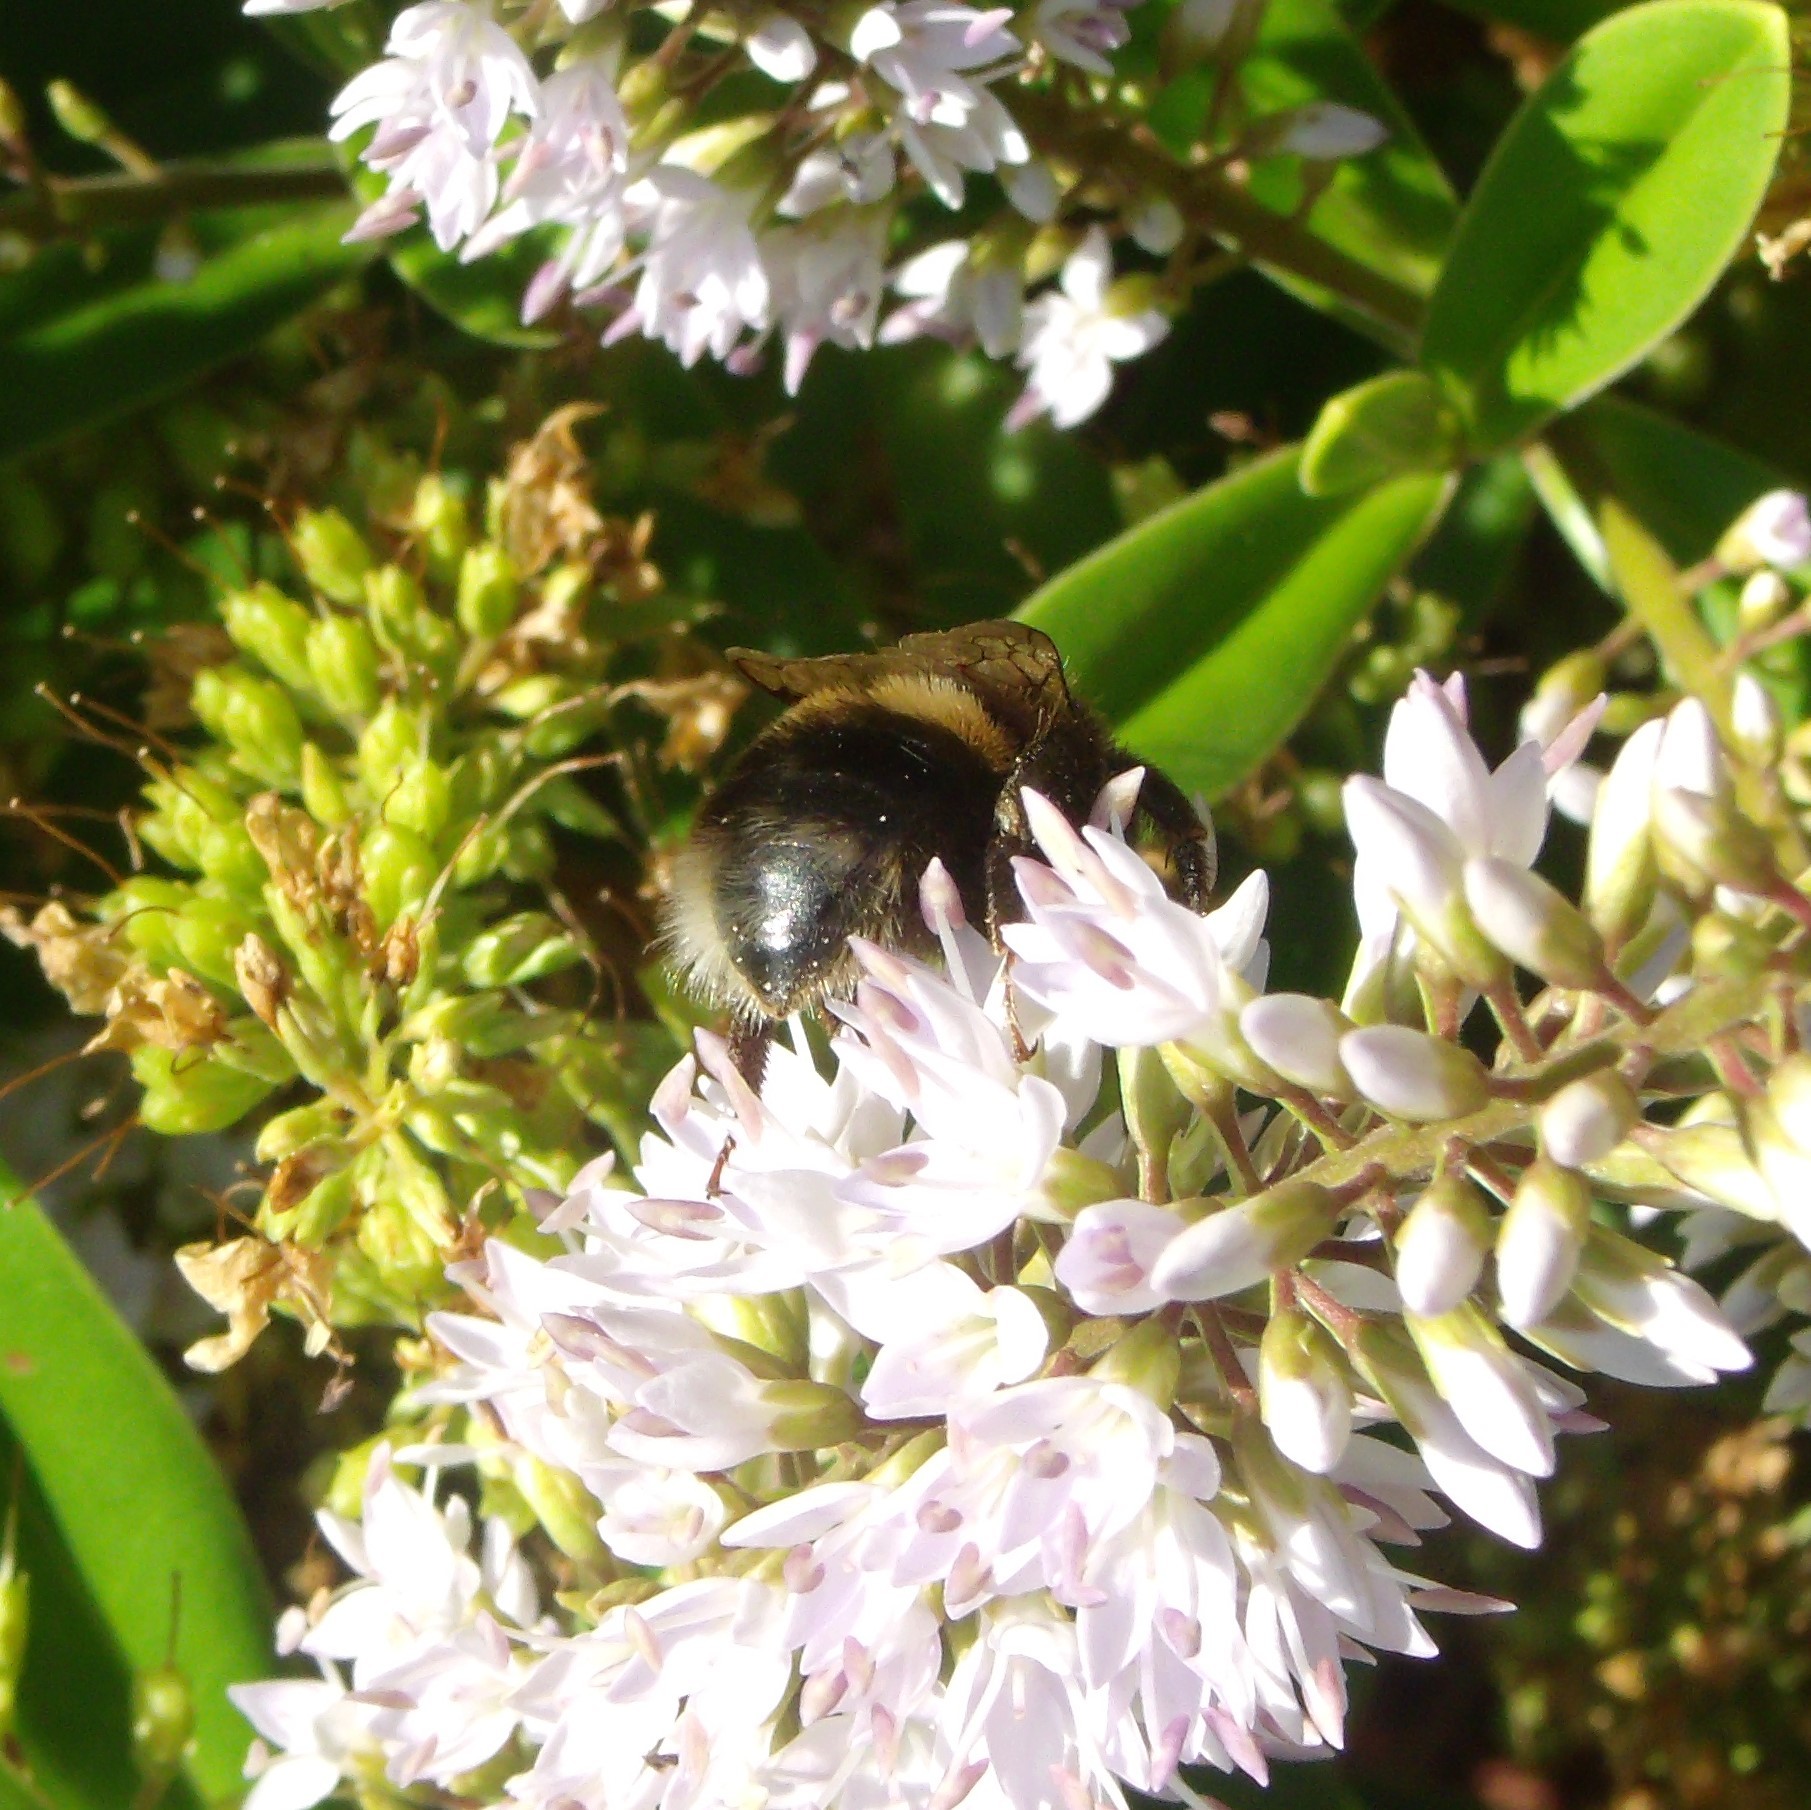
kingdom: Animalia
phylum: Arthropoda
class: Insecta
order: Hymenoptera
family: Apidae
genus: Bombus
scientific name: Bombus terrestris
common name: Buff-tailed bumblebee
